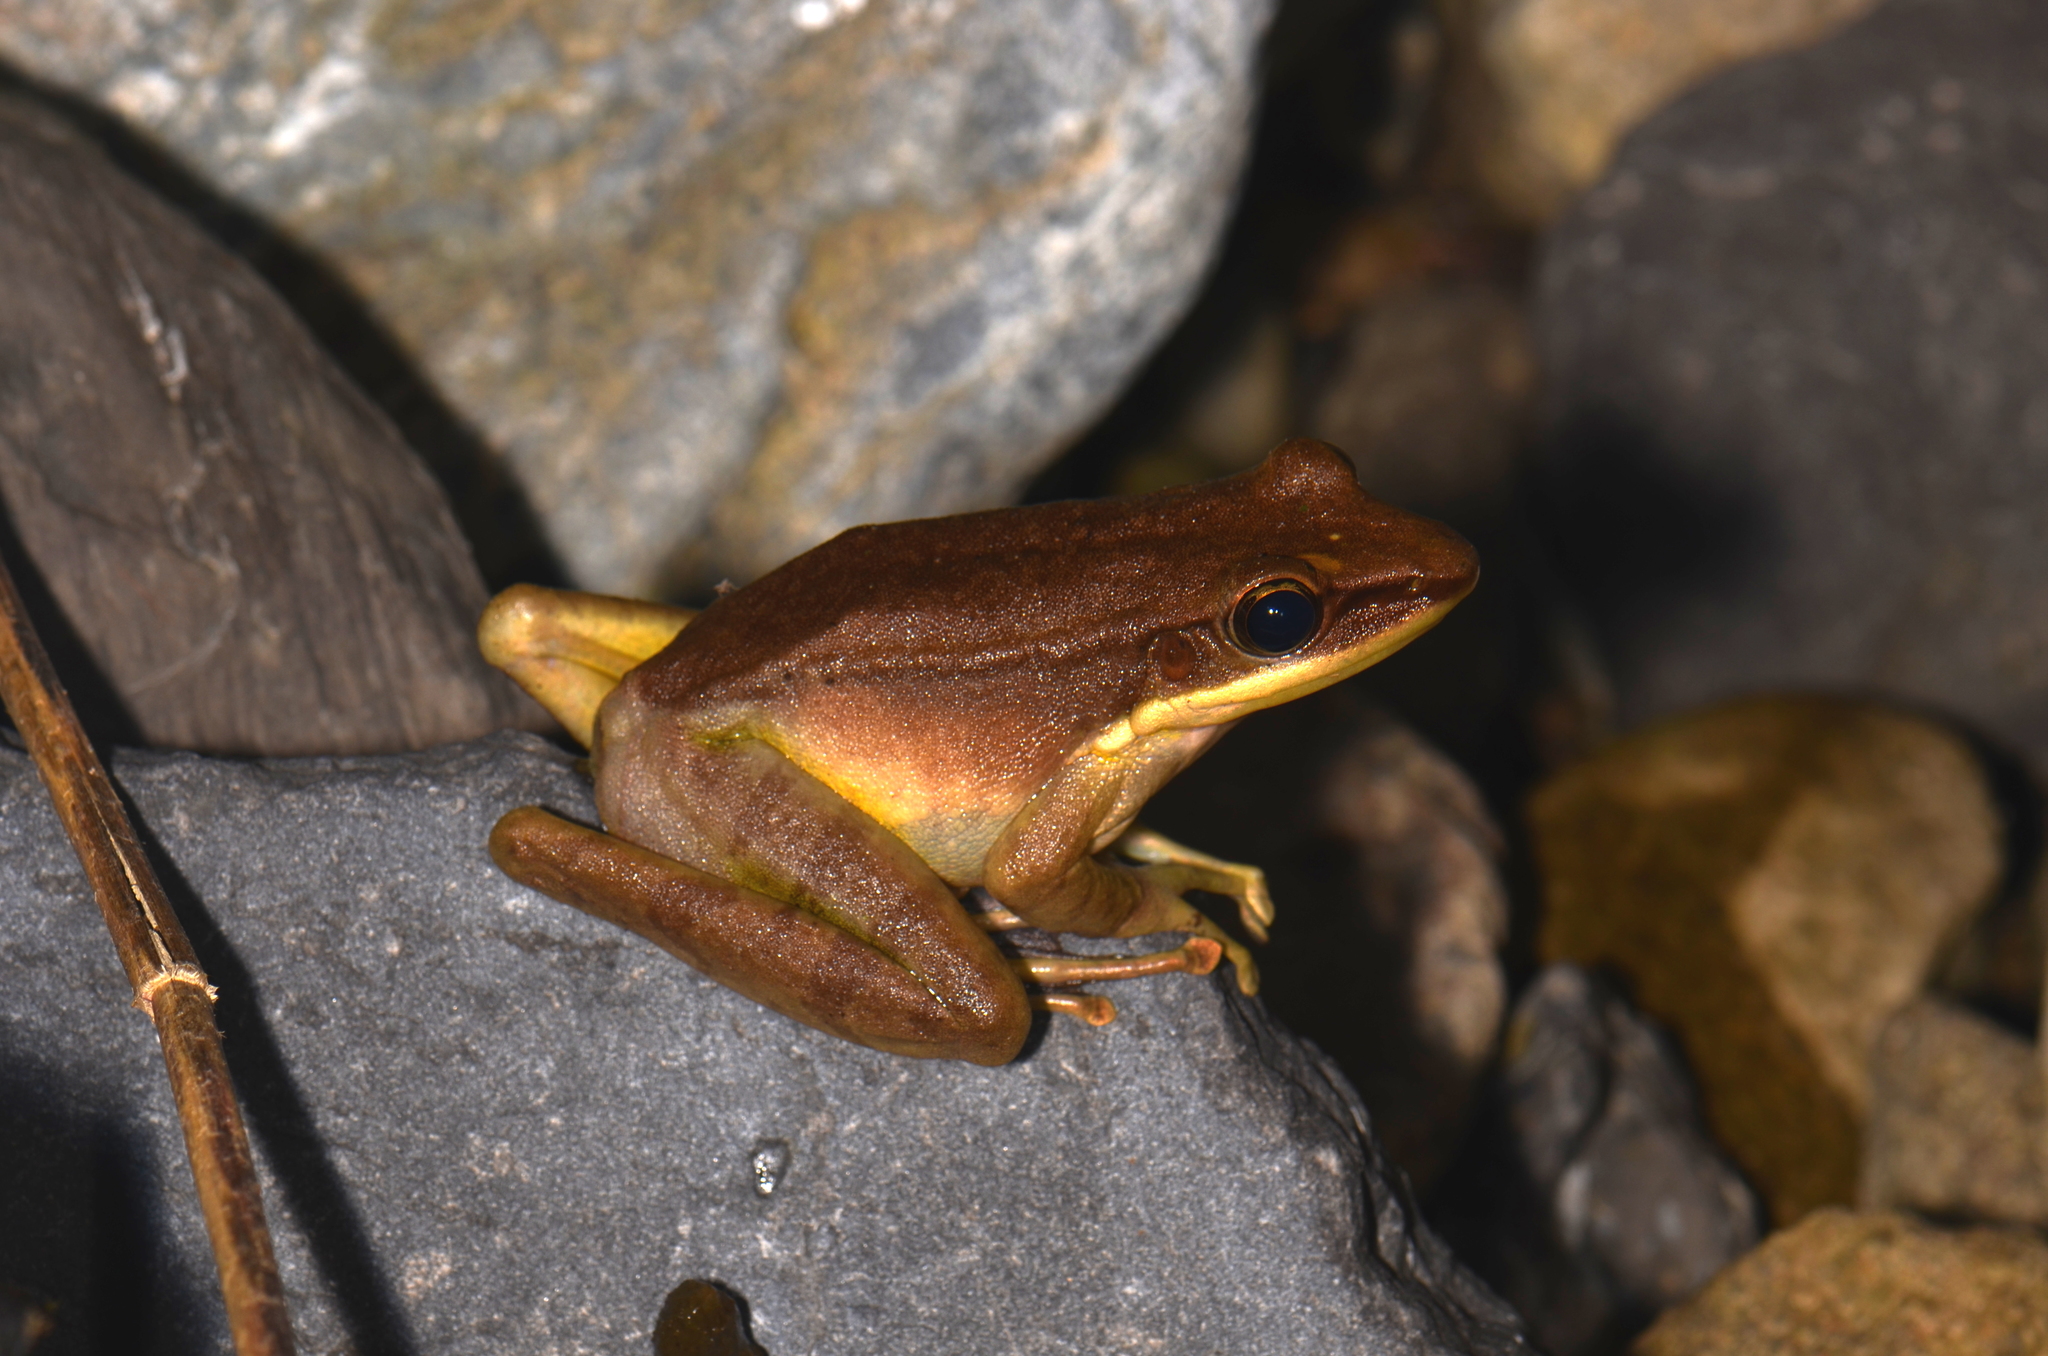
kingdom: Animalia
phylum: Chordata
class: Amphibia
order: Anura
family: Ranidae
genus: Odorrana
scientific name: Odorrana hosii
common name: Green tree frog
